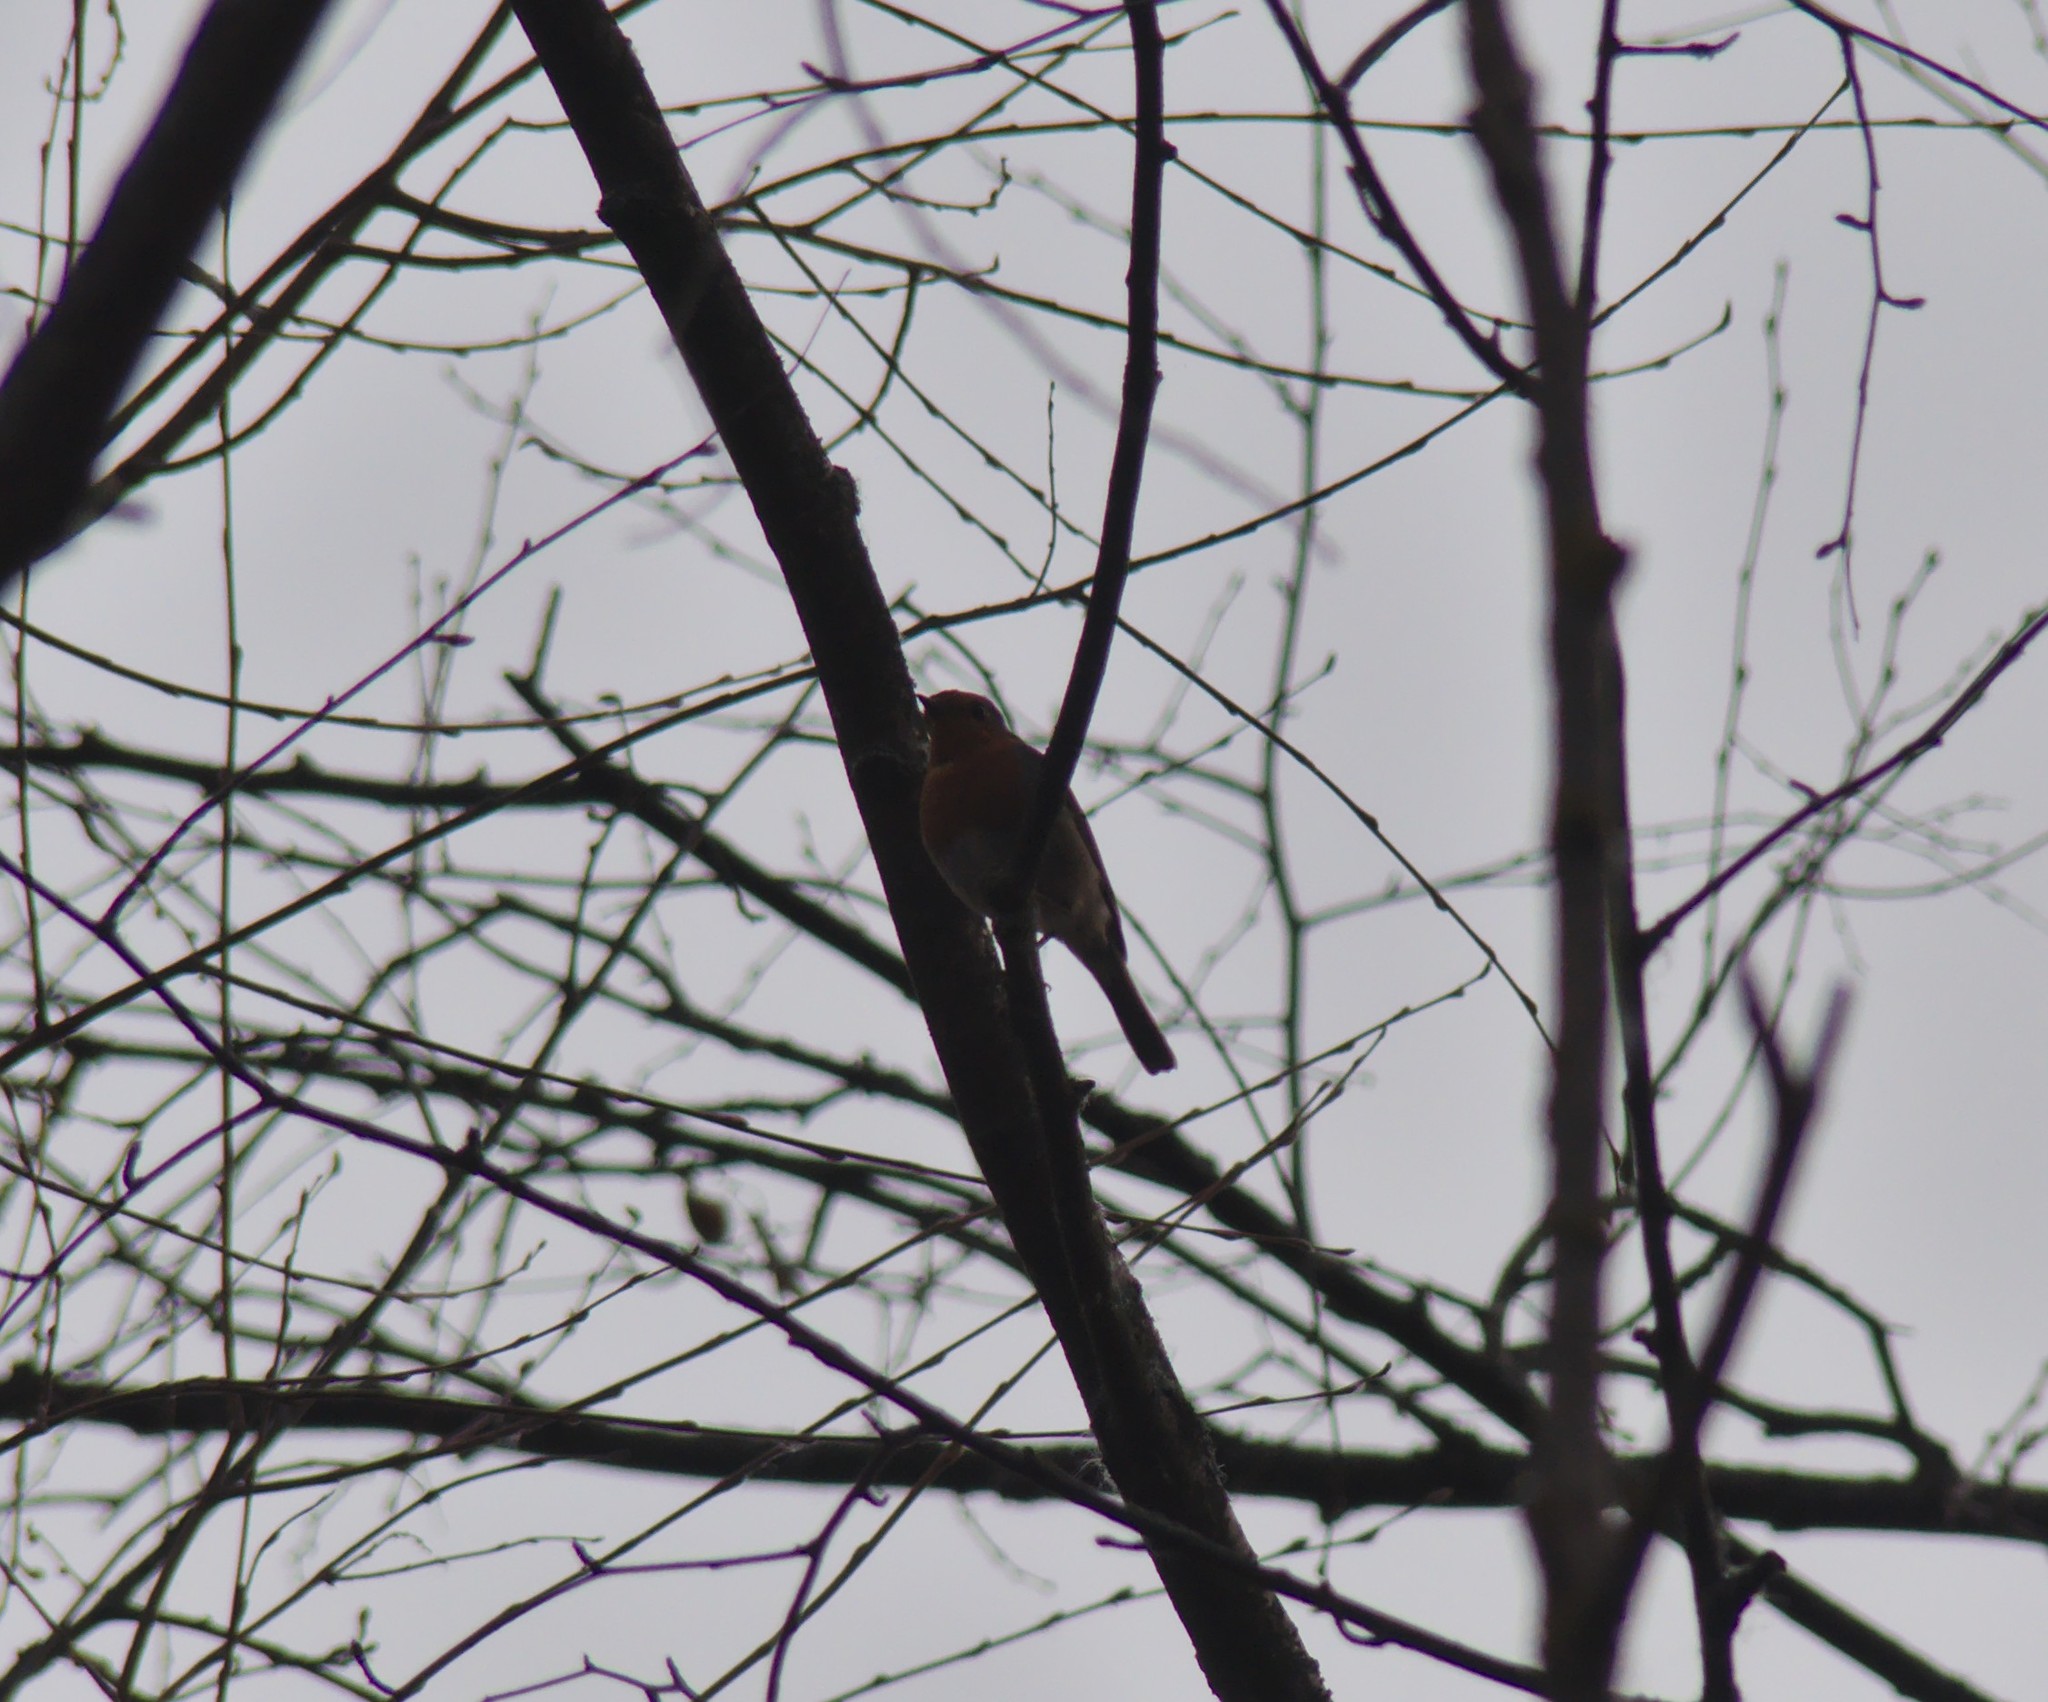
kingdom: Animalia
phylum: Chordata
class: Aves
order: Passeriformes
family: Muscicapidae
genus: Erithacus
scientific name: Erithacus rubecula
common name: European robin
